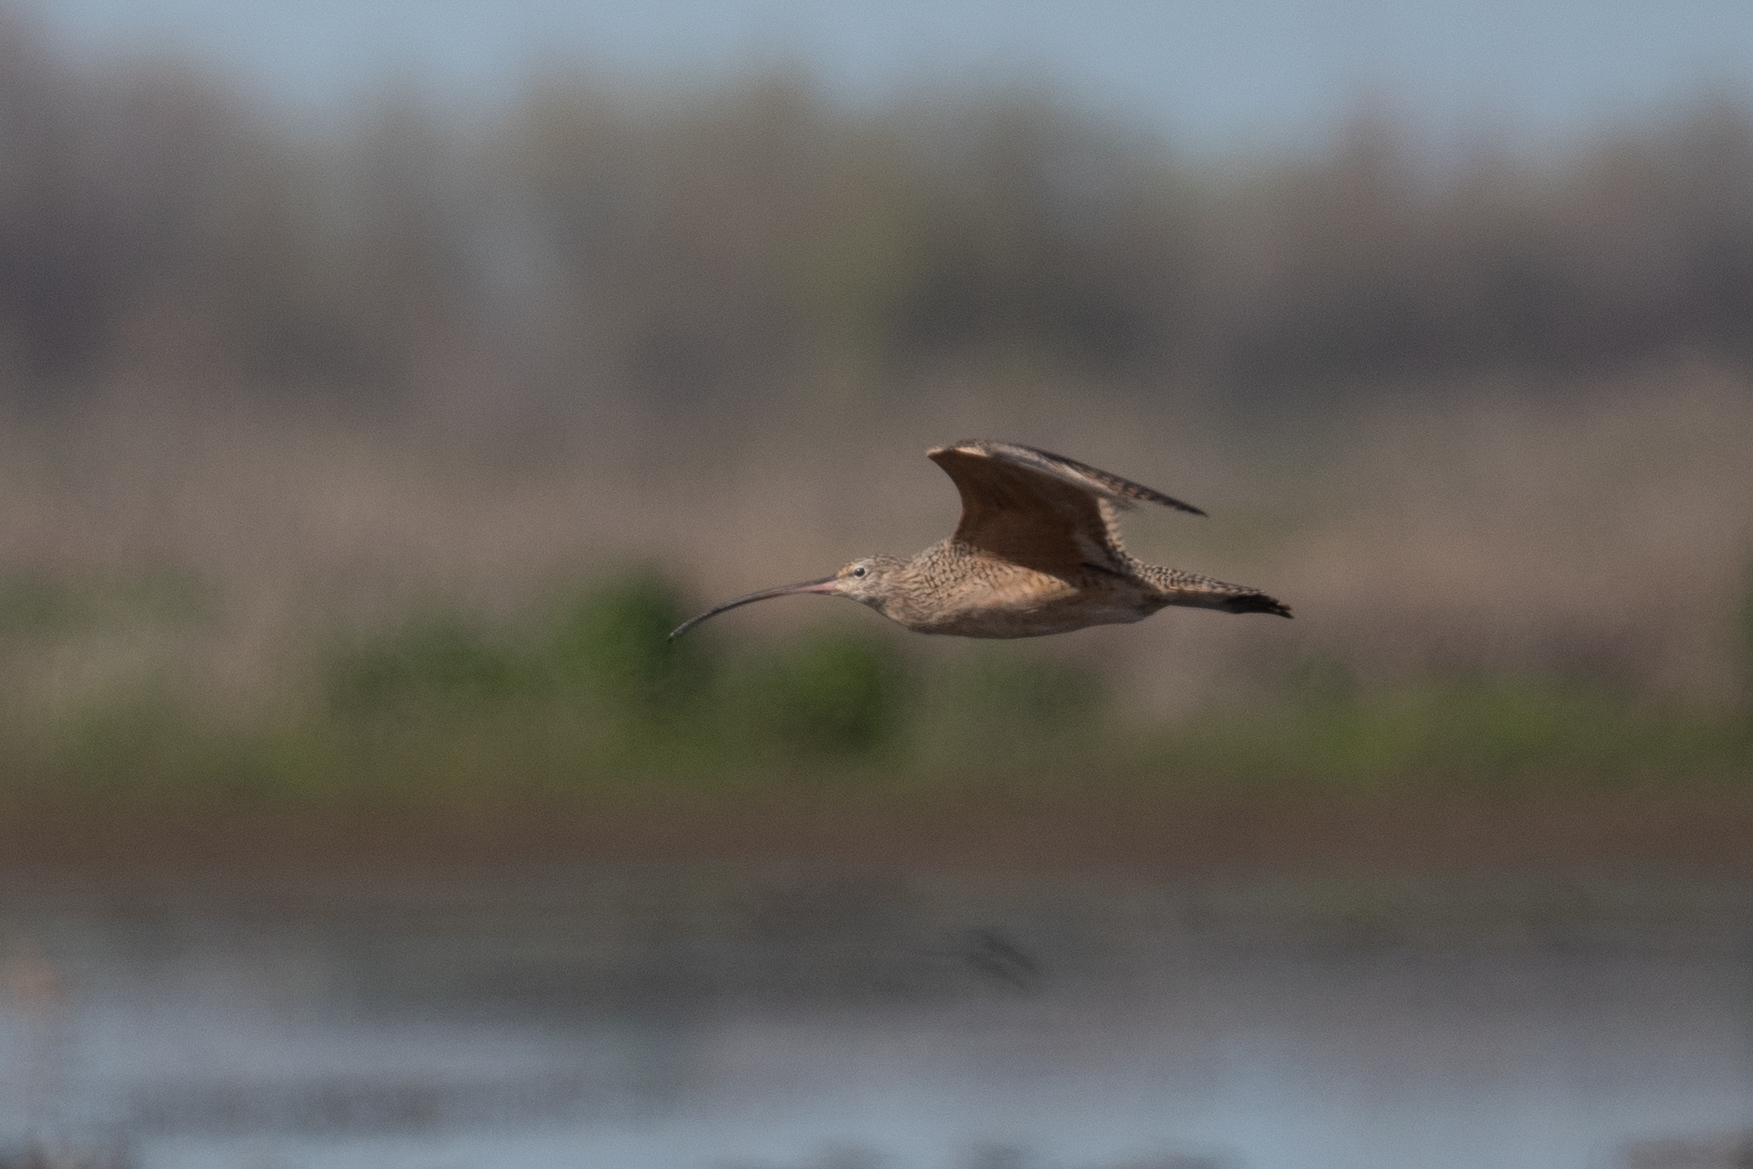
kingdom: Animalia
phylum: Chordata
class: Aves
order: Charadriiformes
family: Scolopacidae
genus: Numenius
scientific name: Numenius americanus
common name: Long-billed curlew
